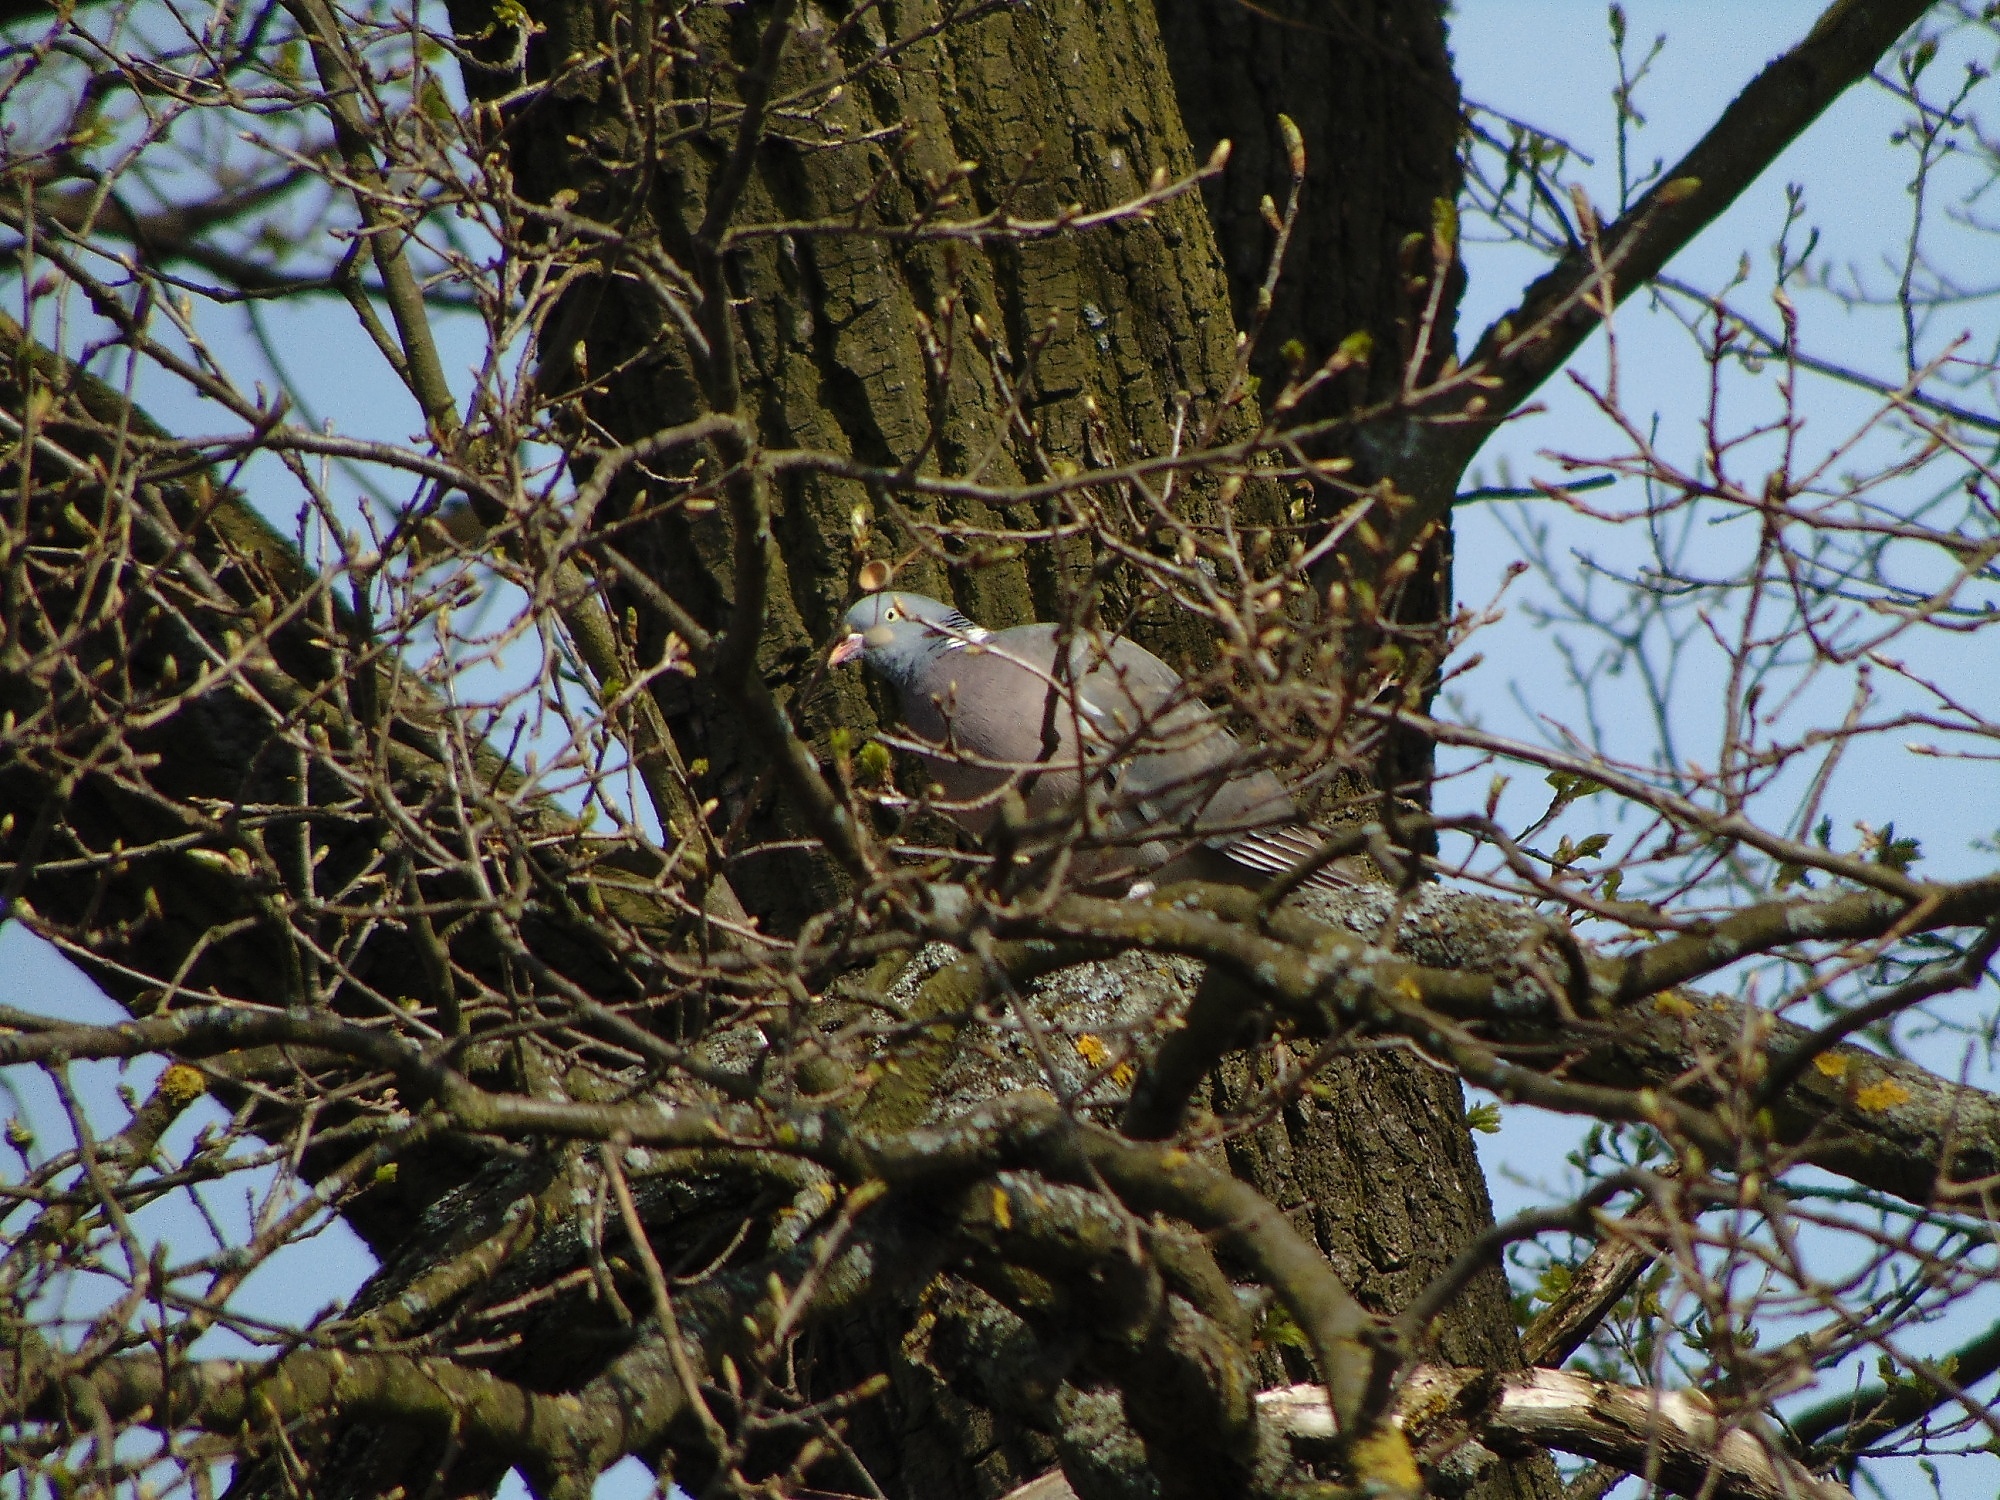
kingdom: Animalia
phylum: Chordata
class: Aves
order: Columbiformes
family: Columbidae
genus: Columba
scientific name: Columba palumbus
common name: Common wood pigeon
